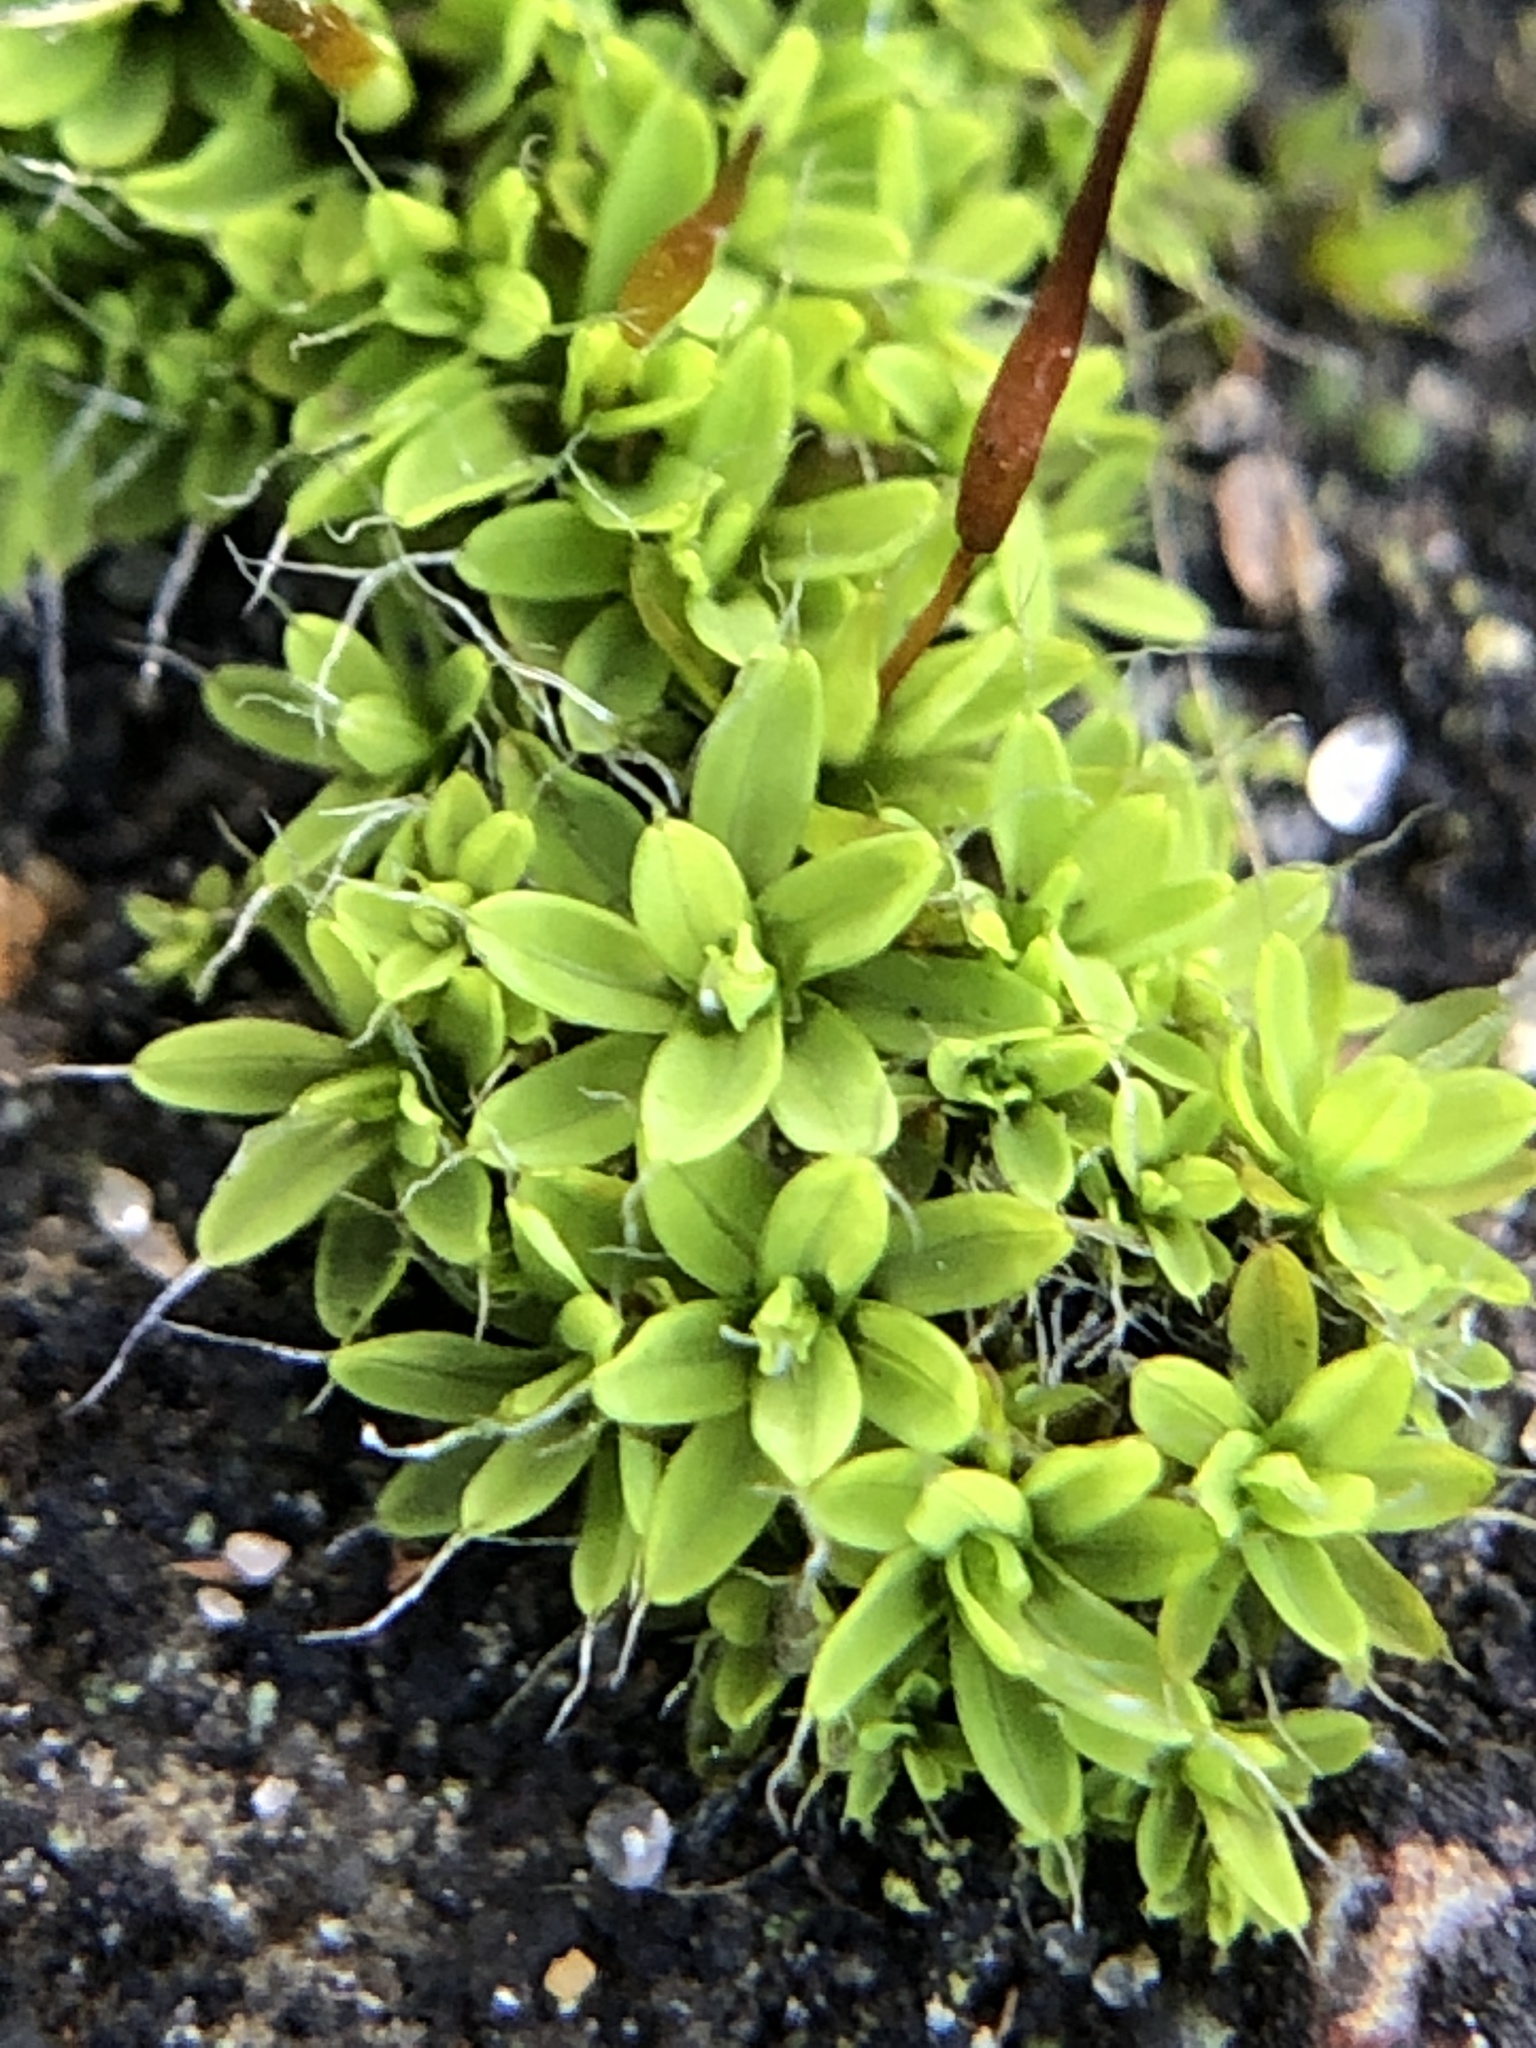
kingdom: Plantae
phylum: Bryophyta
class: Bryopsida
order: Pottiales
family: Pottiaceae
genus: Tortula
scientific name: Tortula muralis
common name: Wall screw-moss
